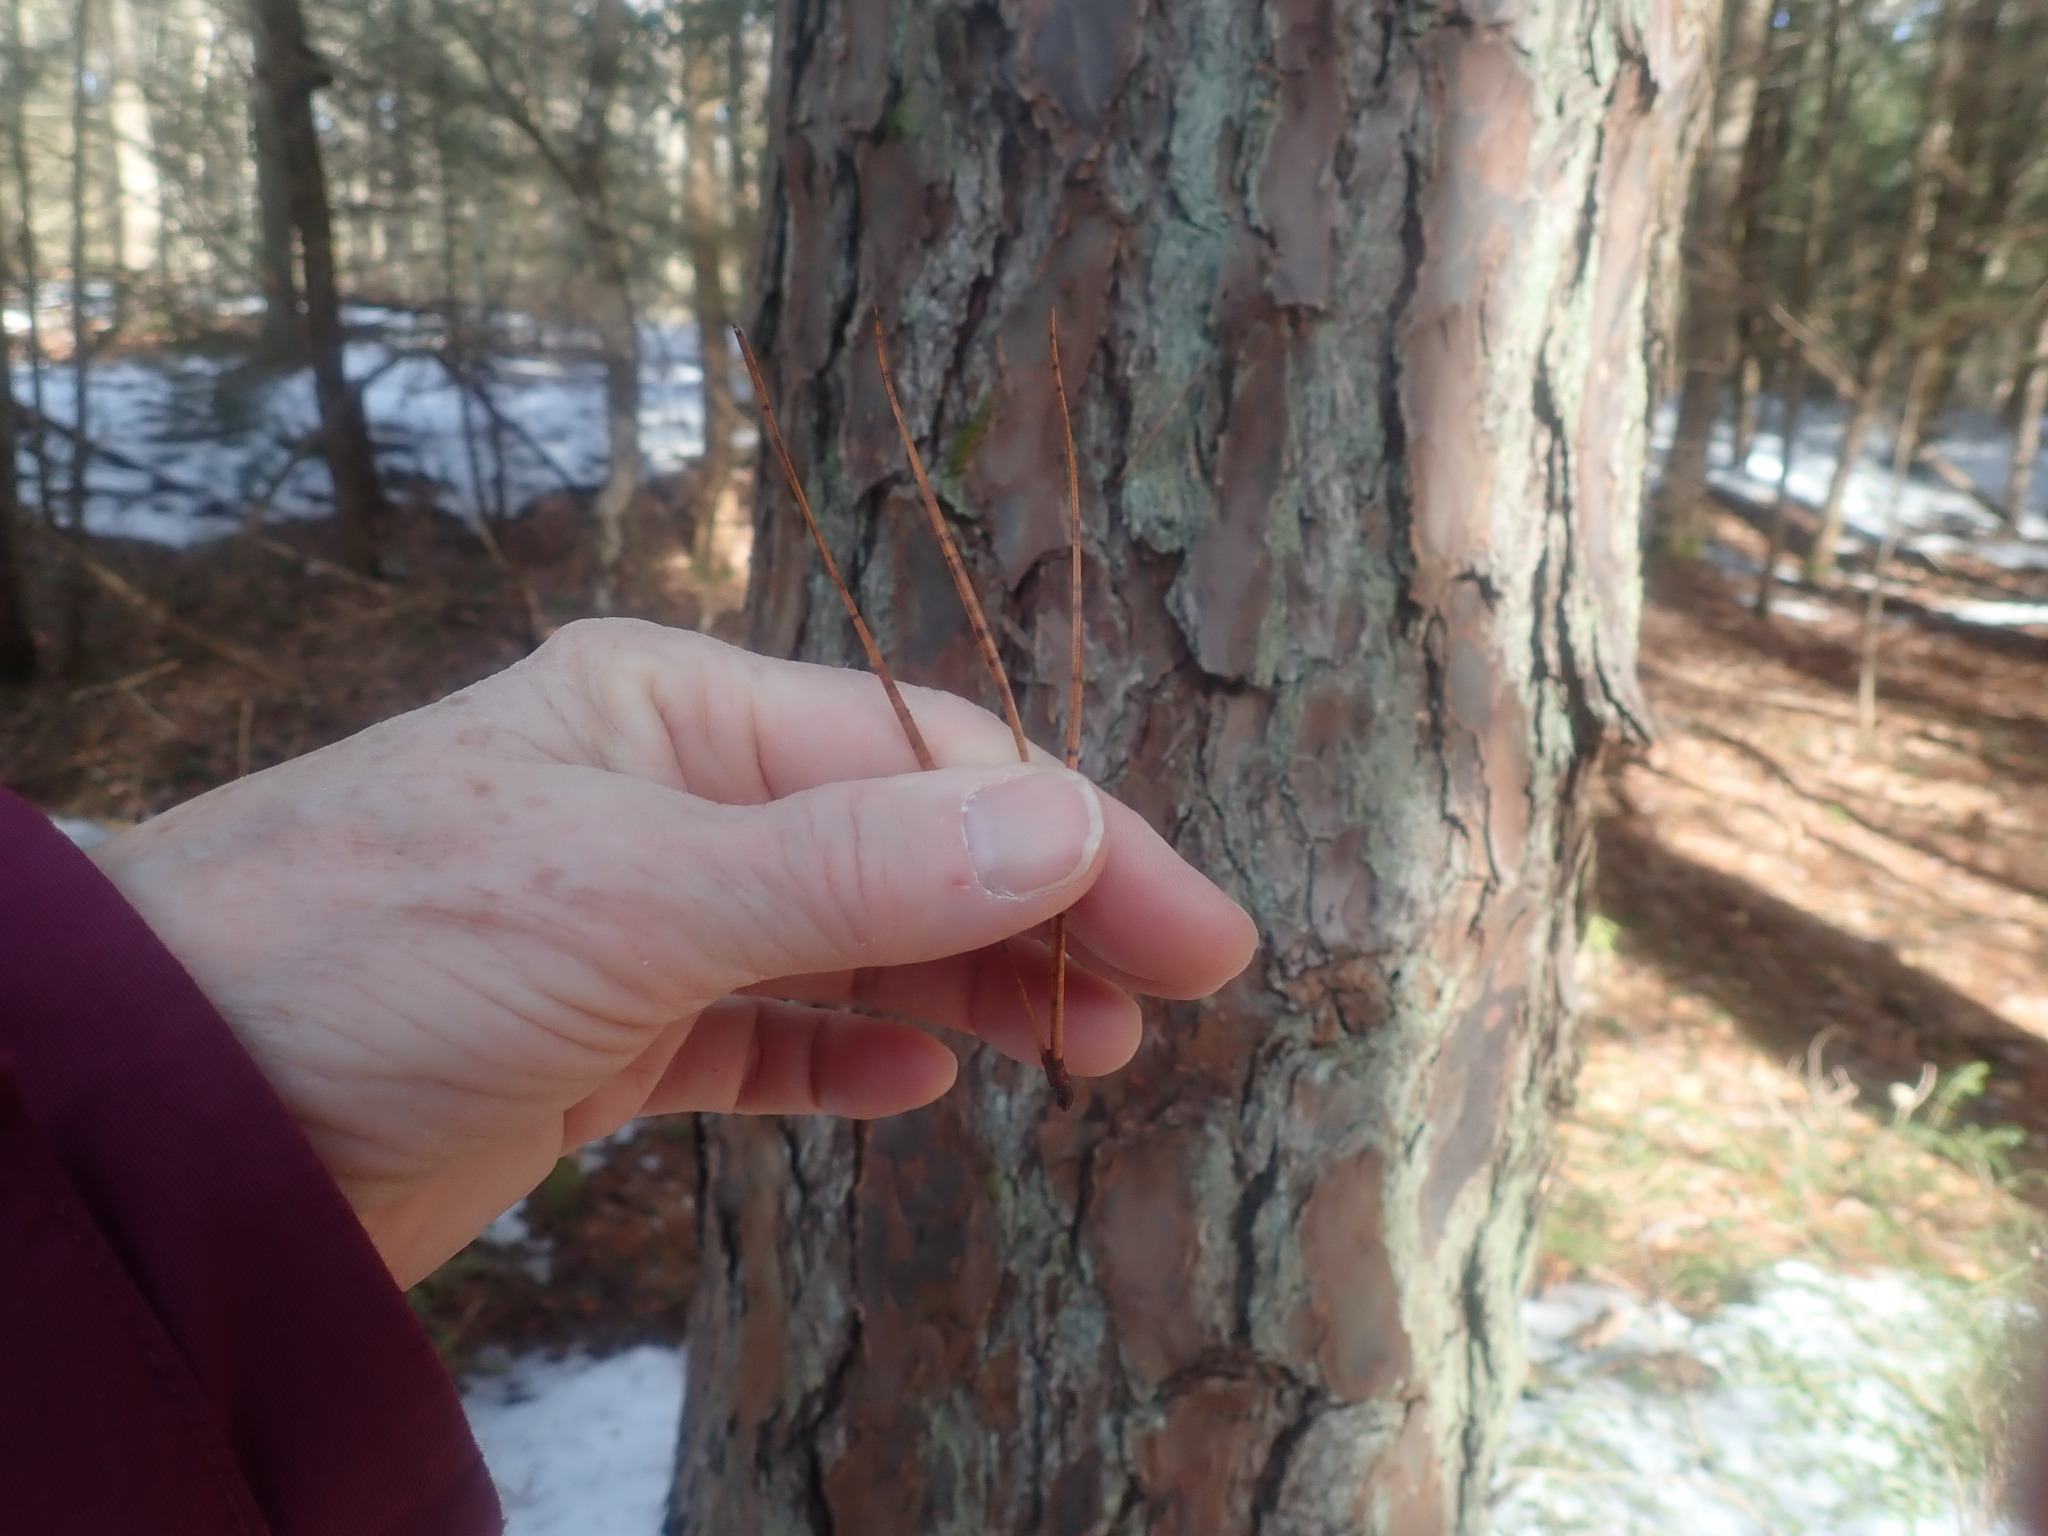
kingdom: Plantae
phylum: Tracheophyta
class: Pinopsida
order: Pinales
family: Pinaceae
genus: Pinus
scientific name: Pinus rigida
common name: Pitch pine
